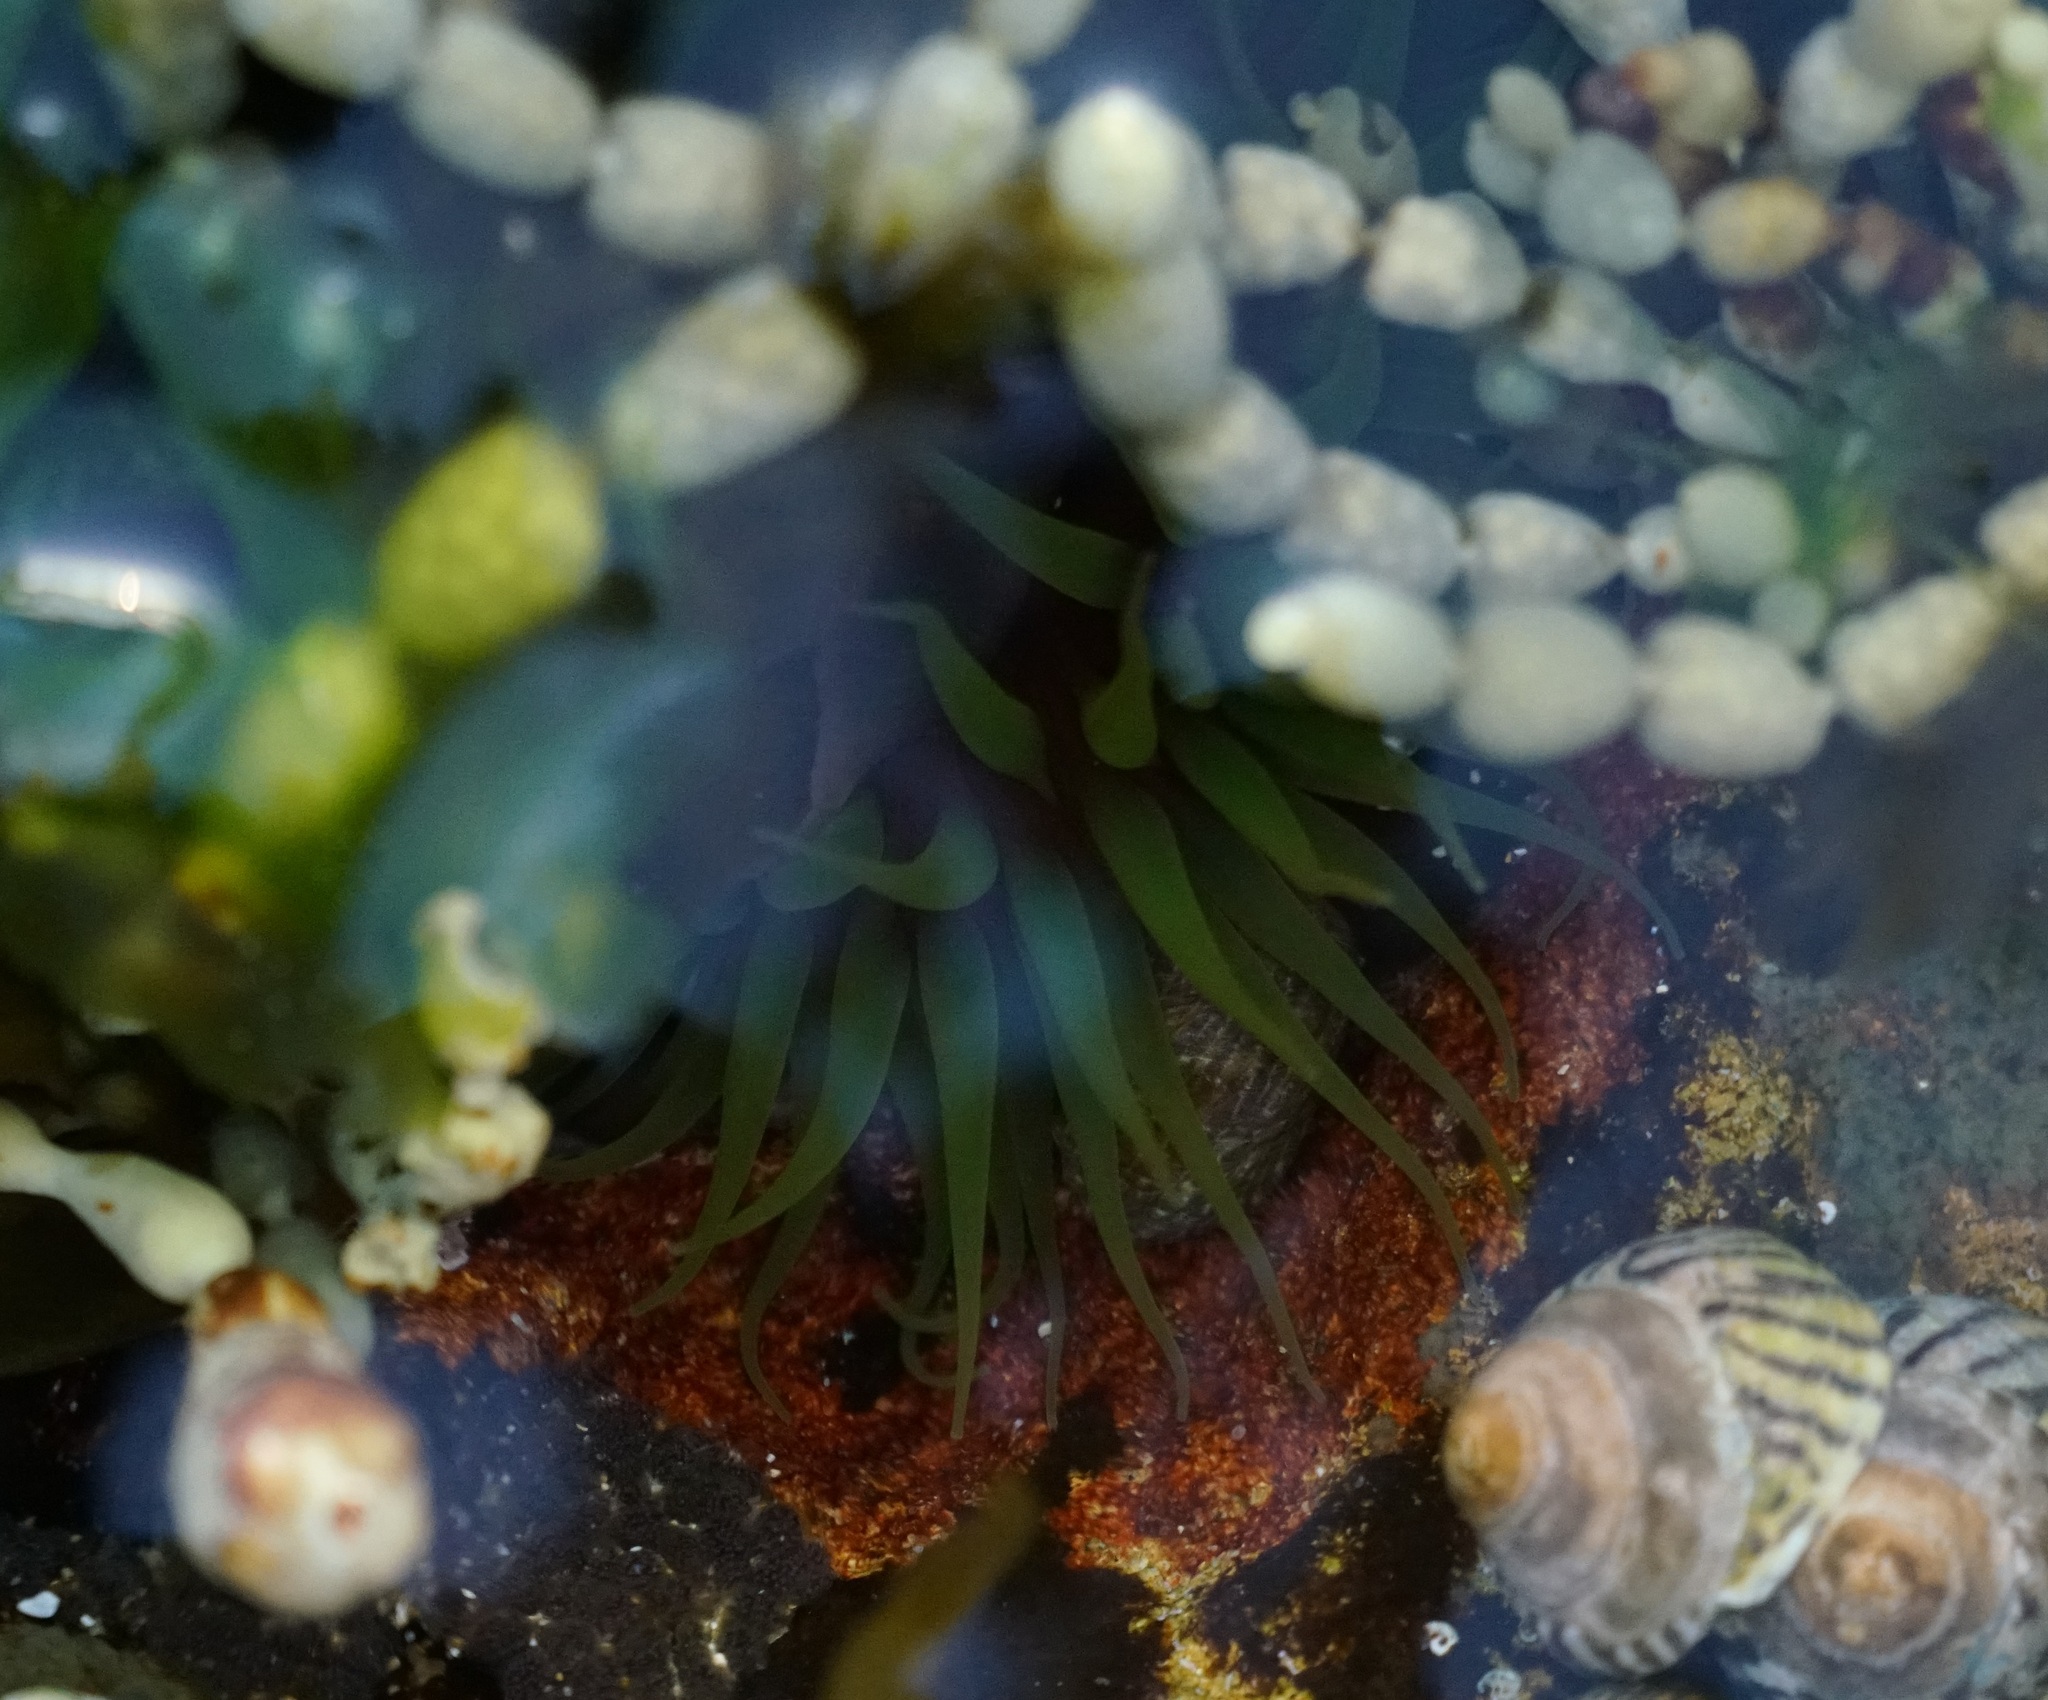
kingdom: Animalia
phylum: Cnidaria
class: Anthozoa
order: Actiniaria
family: Actiniidae
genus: Aulactinia
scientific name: Aulactinia veratra
